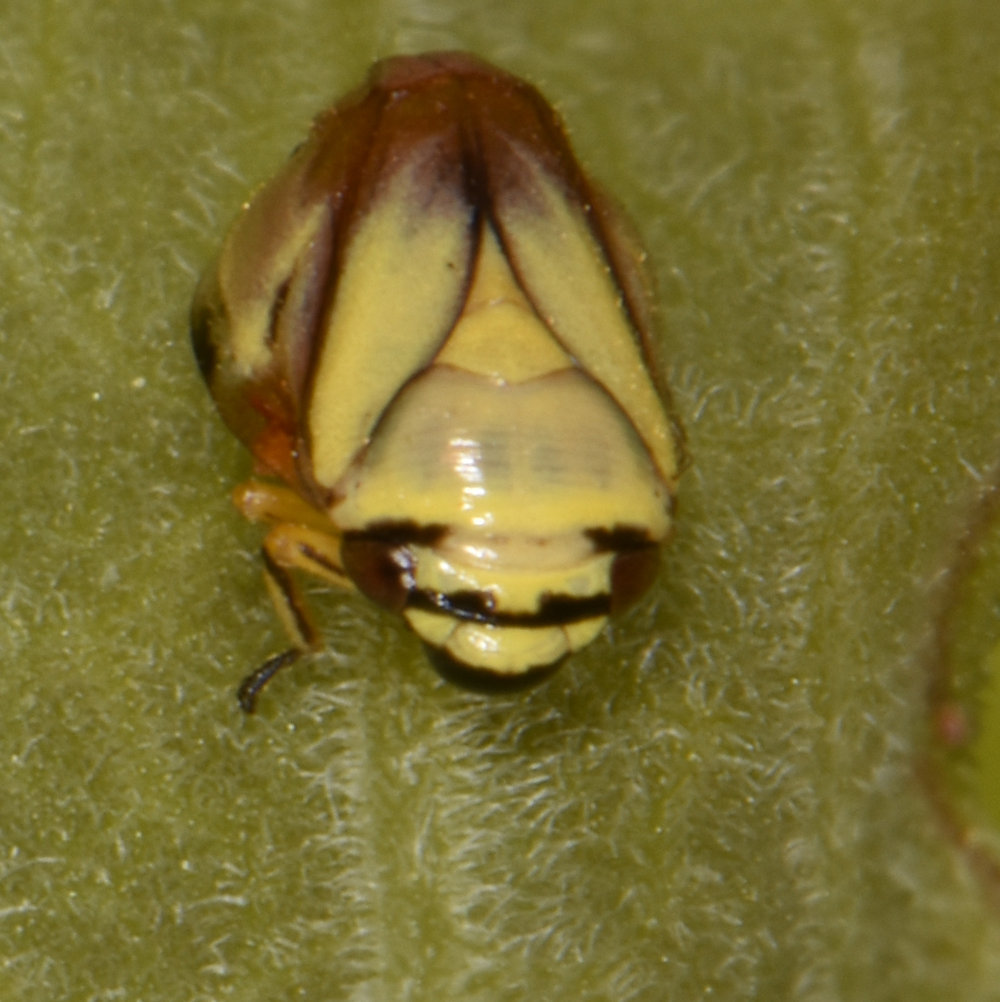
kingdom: Animalia
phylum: Arthropoda
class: Insecta
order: Hemiptera
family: Clastopteridae
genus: Clastoptera
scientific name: Clastoptera proteus
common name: Dogwood spittlebug
